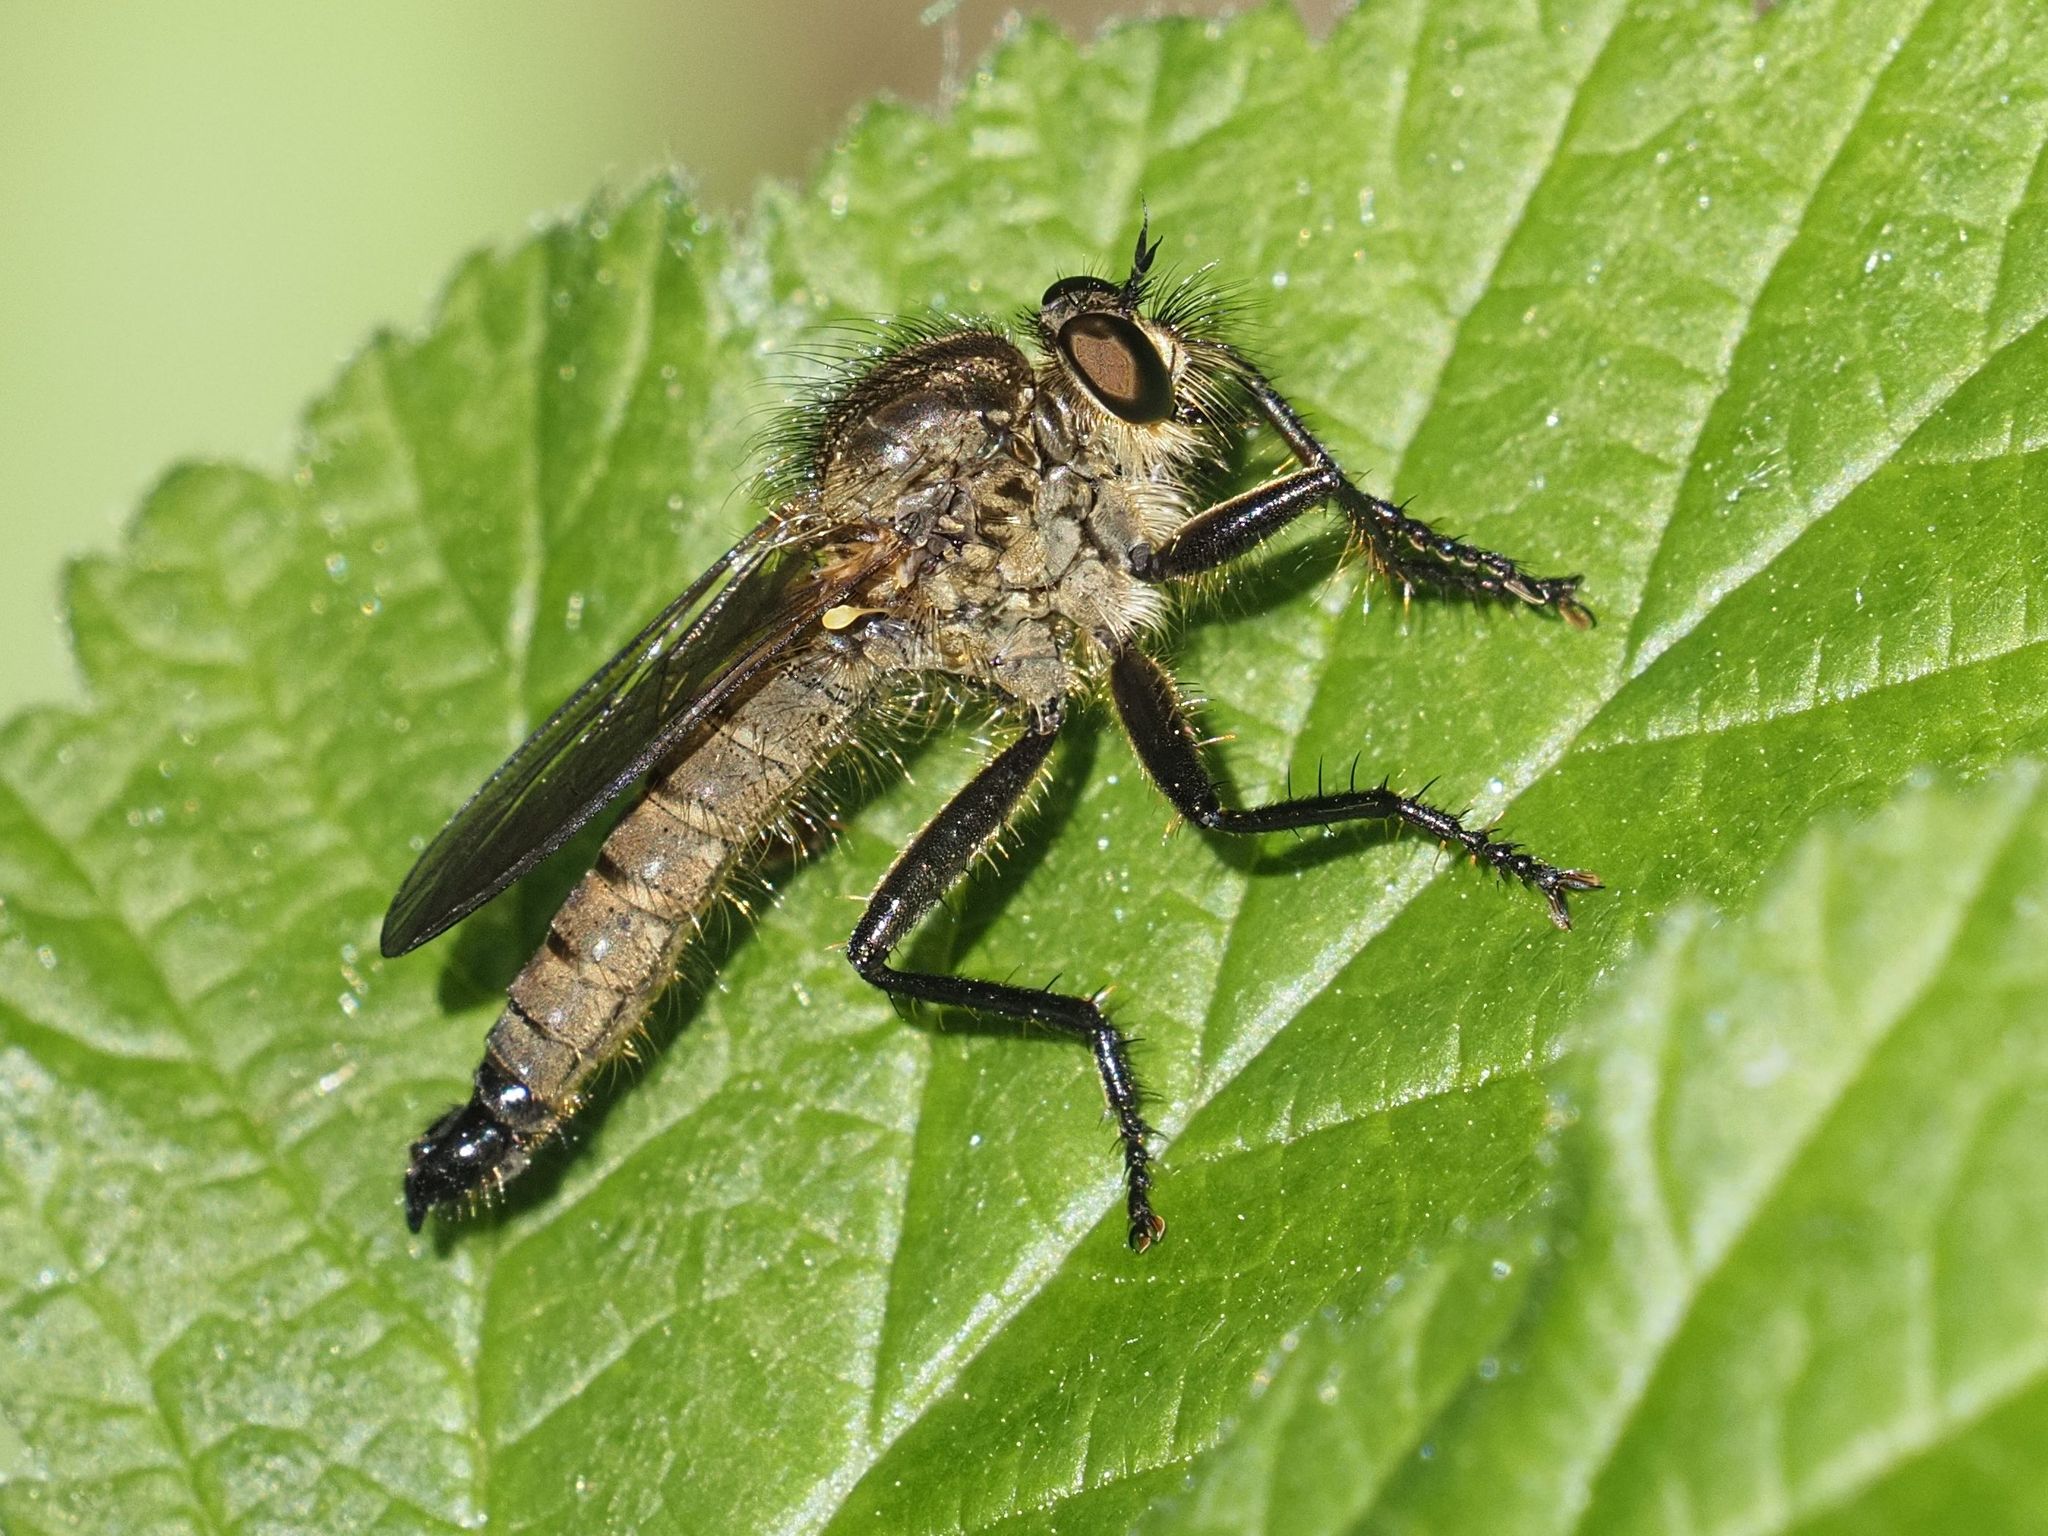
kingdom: Animalia
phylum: Arthropoda
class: Insecta
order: Diptera
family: Asilidae
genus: Didysmachus
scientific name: Didysmachus picipes
